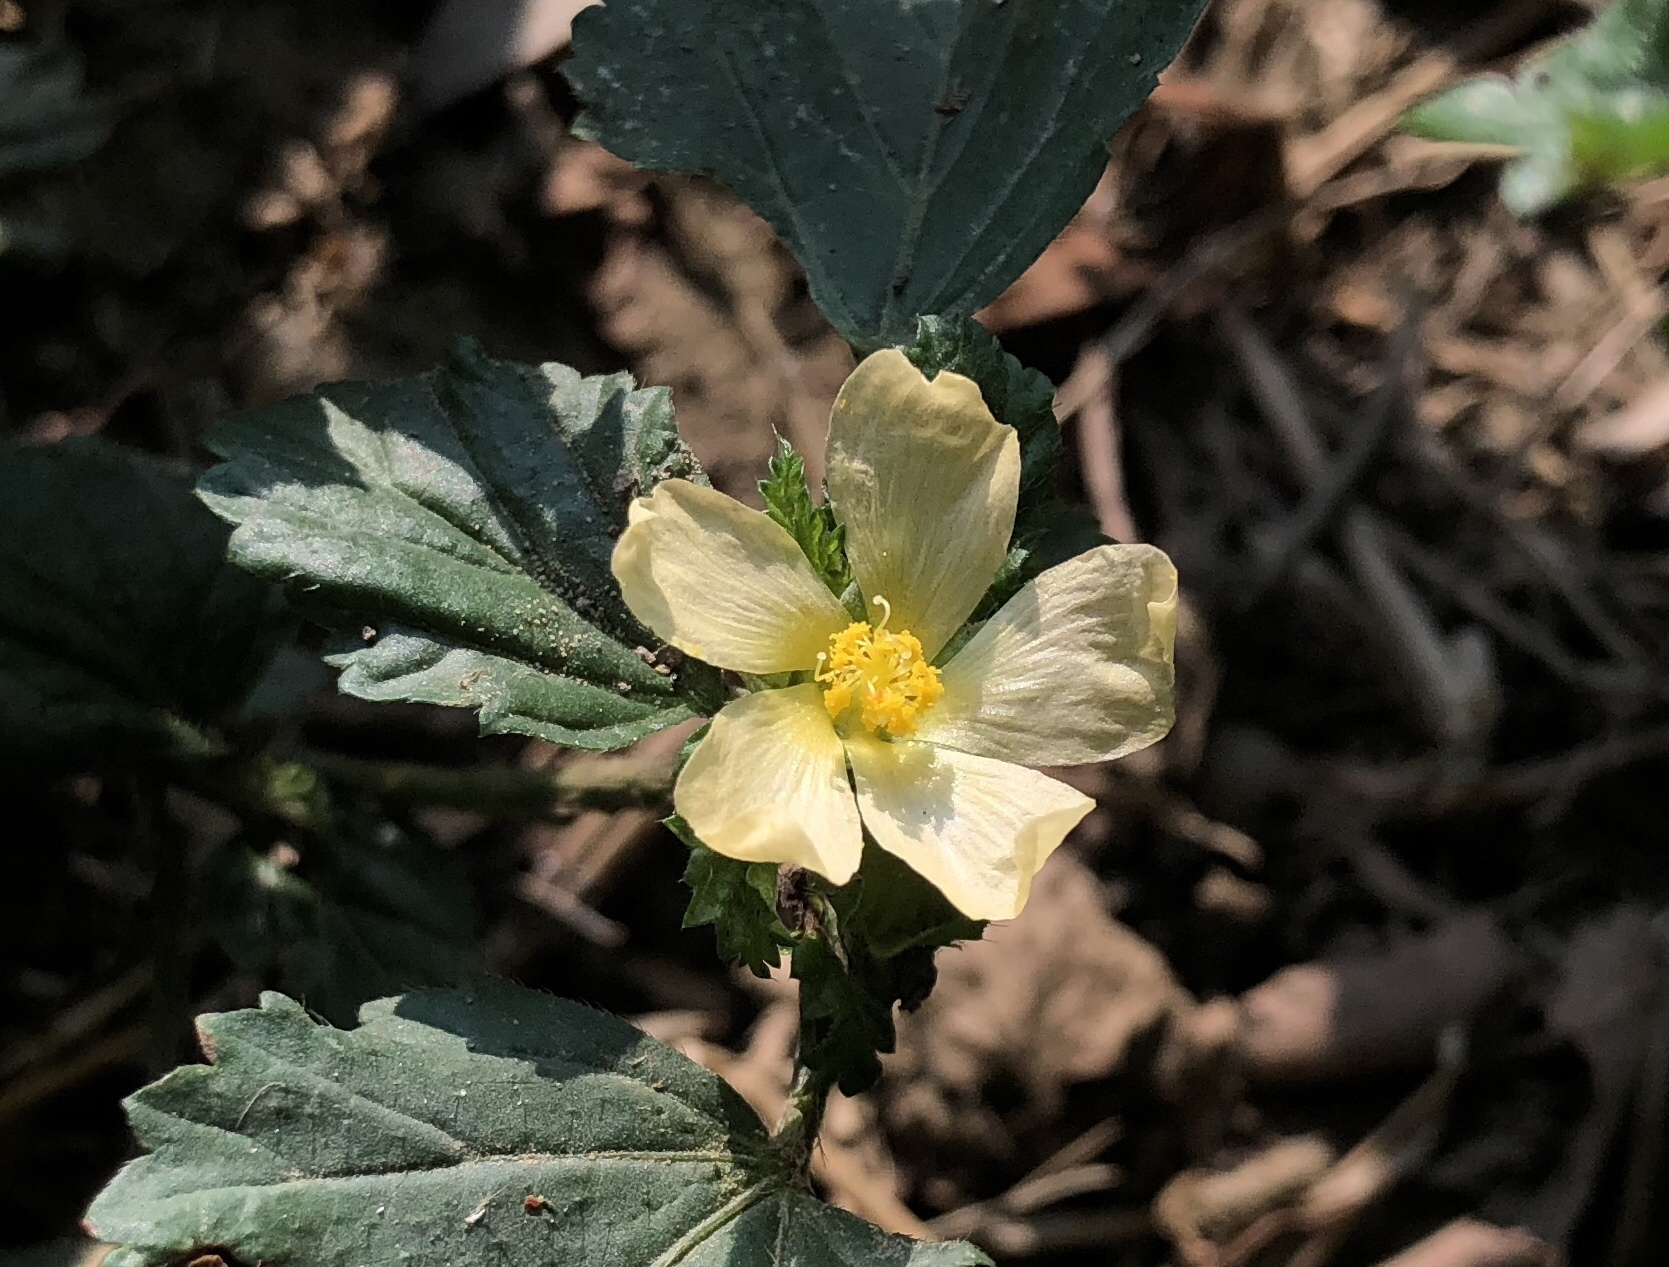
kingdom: Plantae
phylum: Tracheophyta
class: Magnoliopsida
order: Malvales
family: Malvaceae
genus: Malvastrum
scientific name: Malvastrum coromandelianum
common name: Threelobe false mallow
